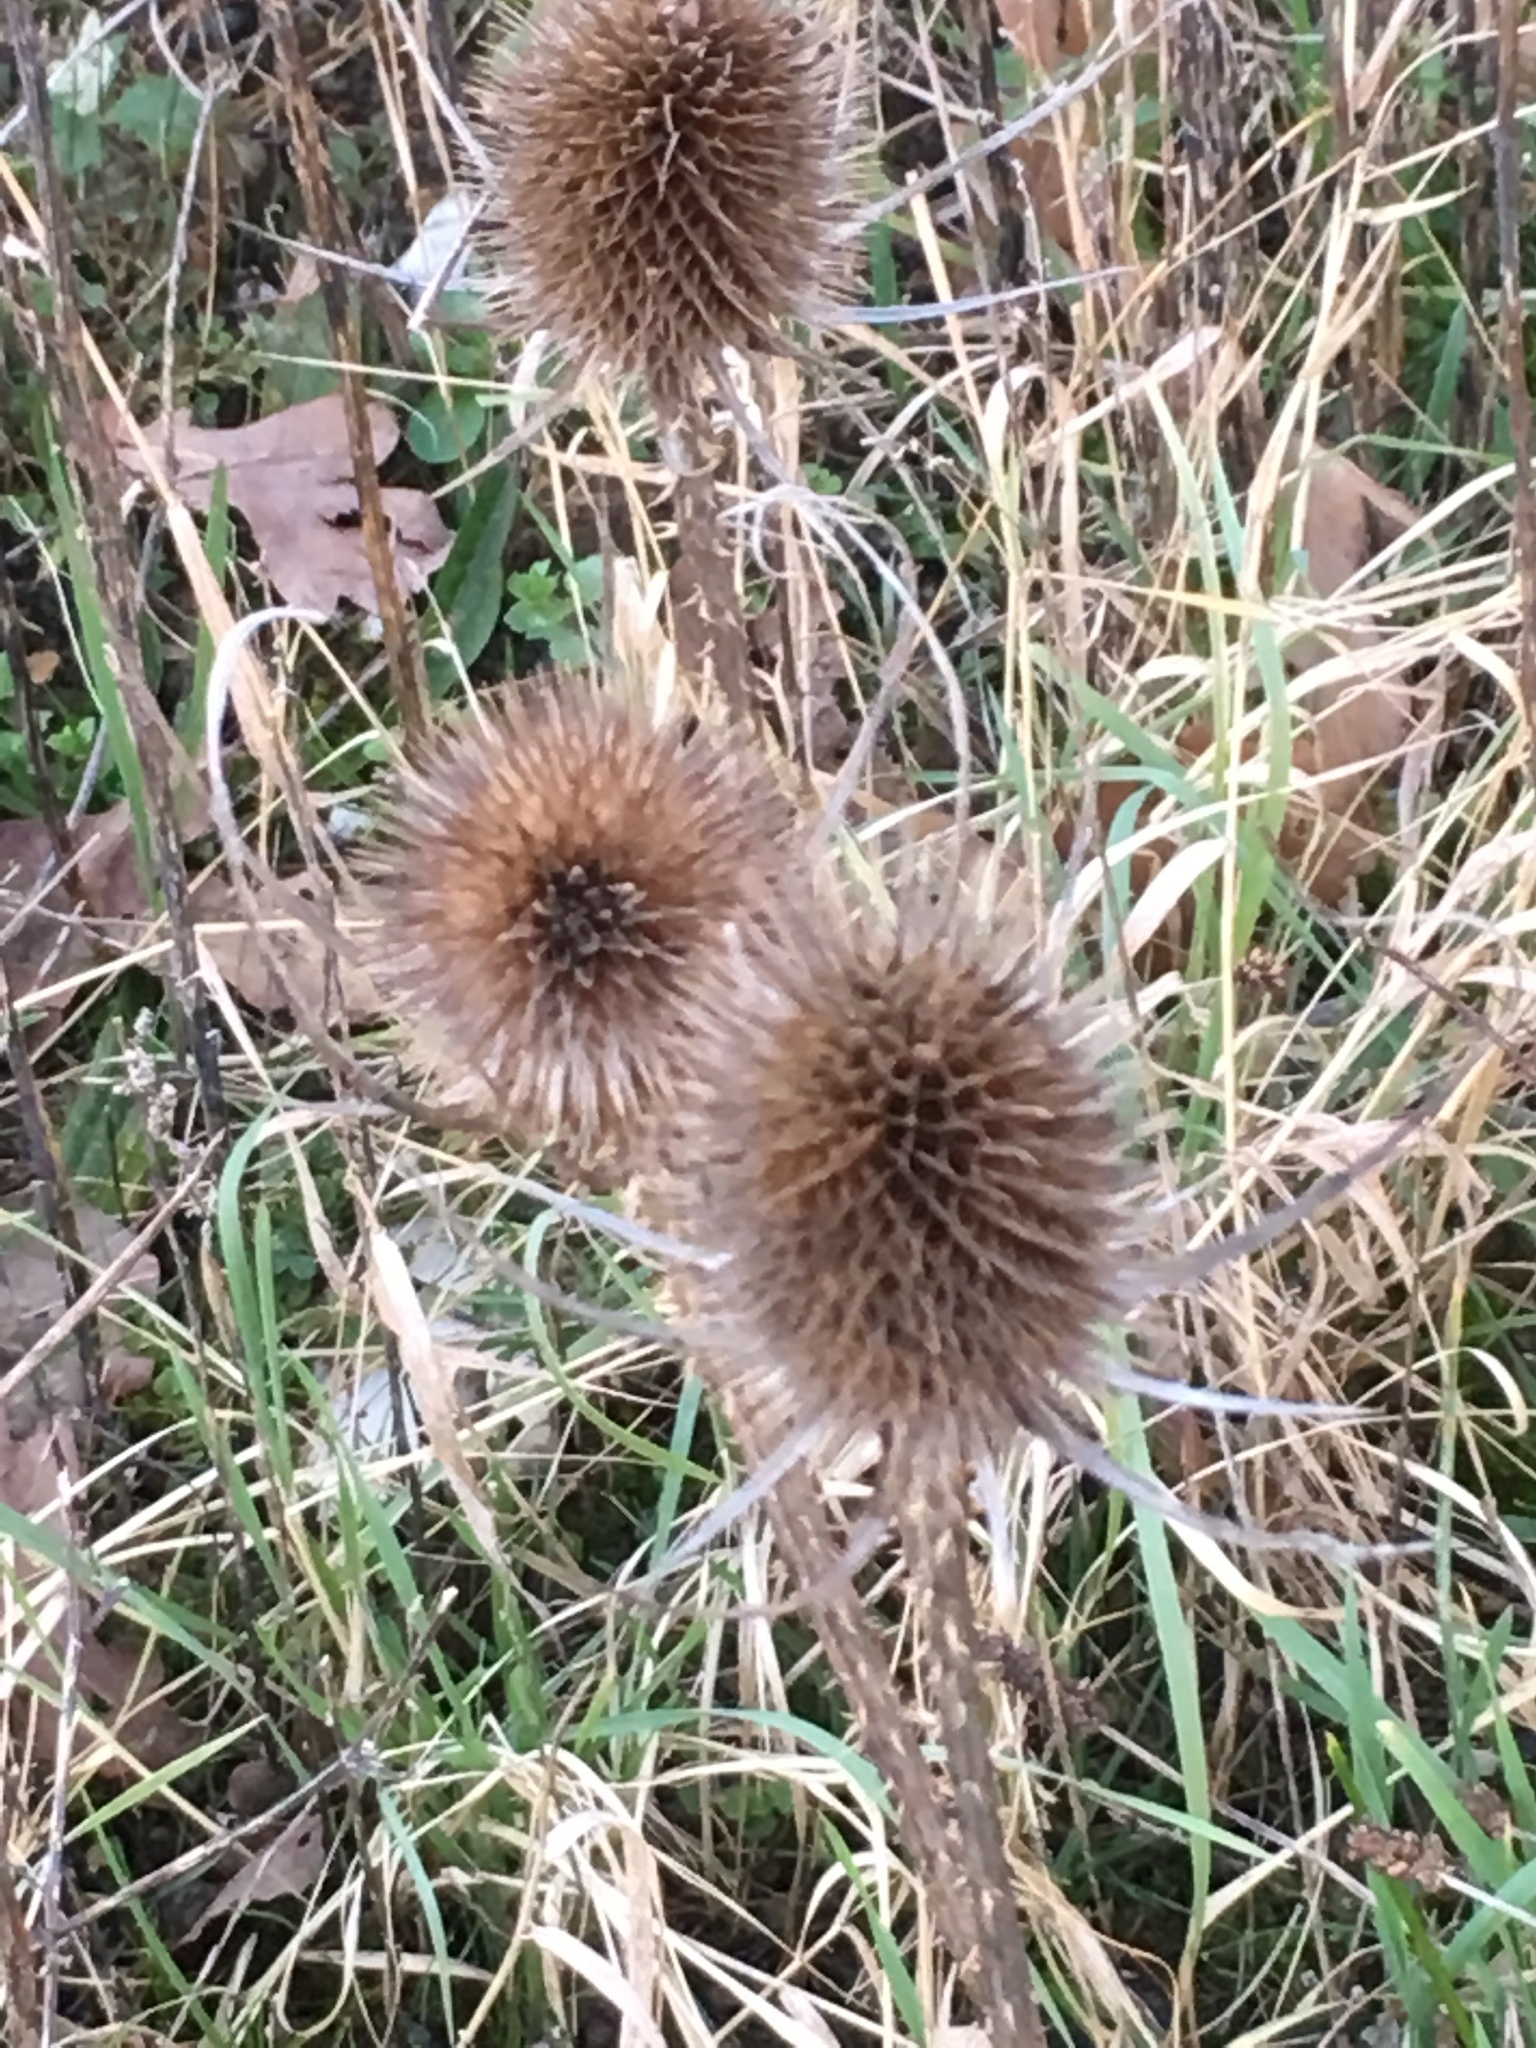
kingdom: Plantae
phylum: Tracheophyta
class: Magnoliopsida
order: Dipsacales
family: Caprifoliaceae
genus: Dipsacus
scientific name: Dipsacus fullonum
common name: Teasel
